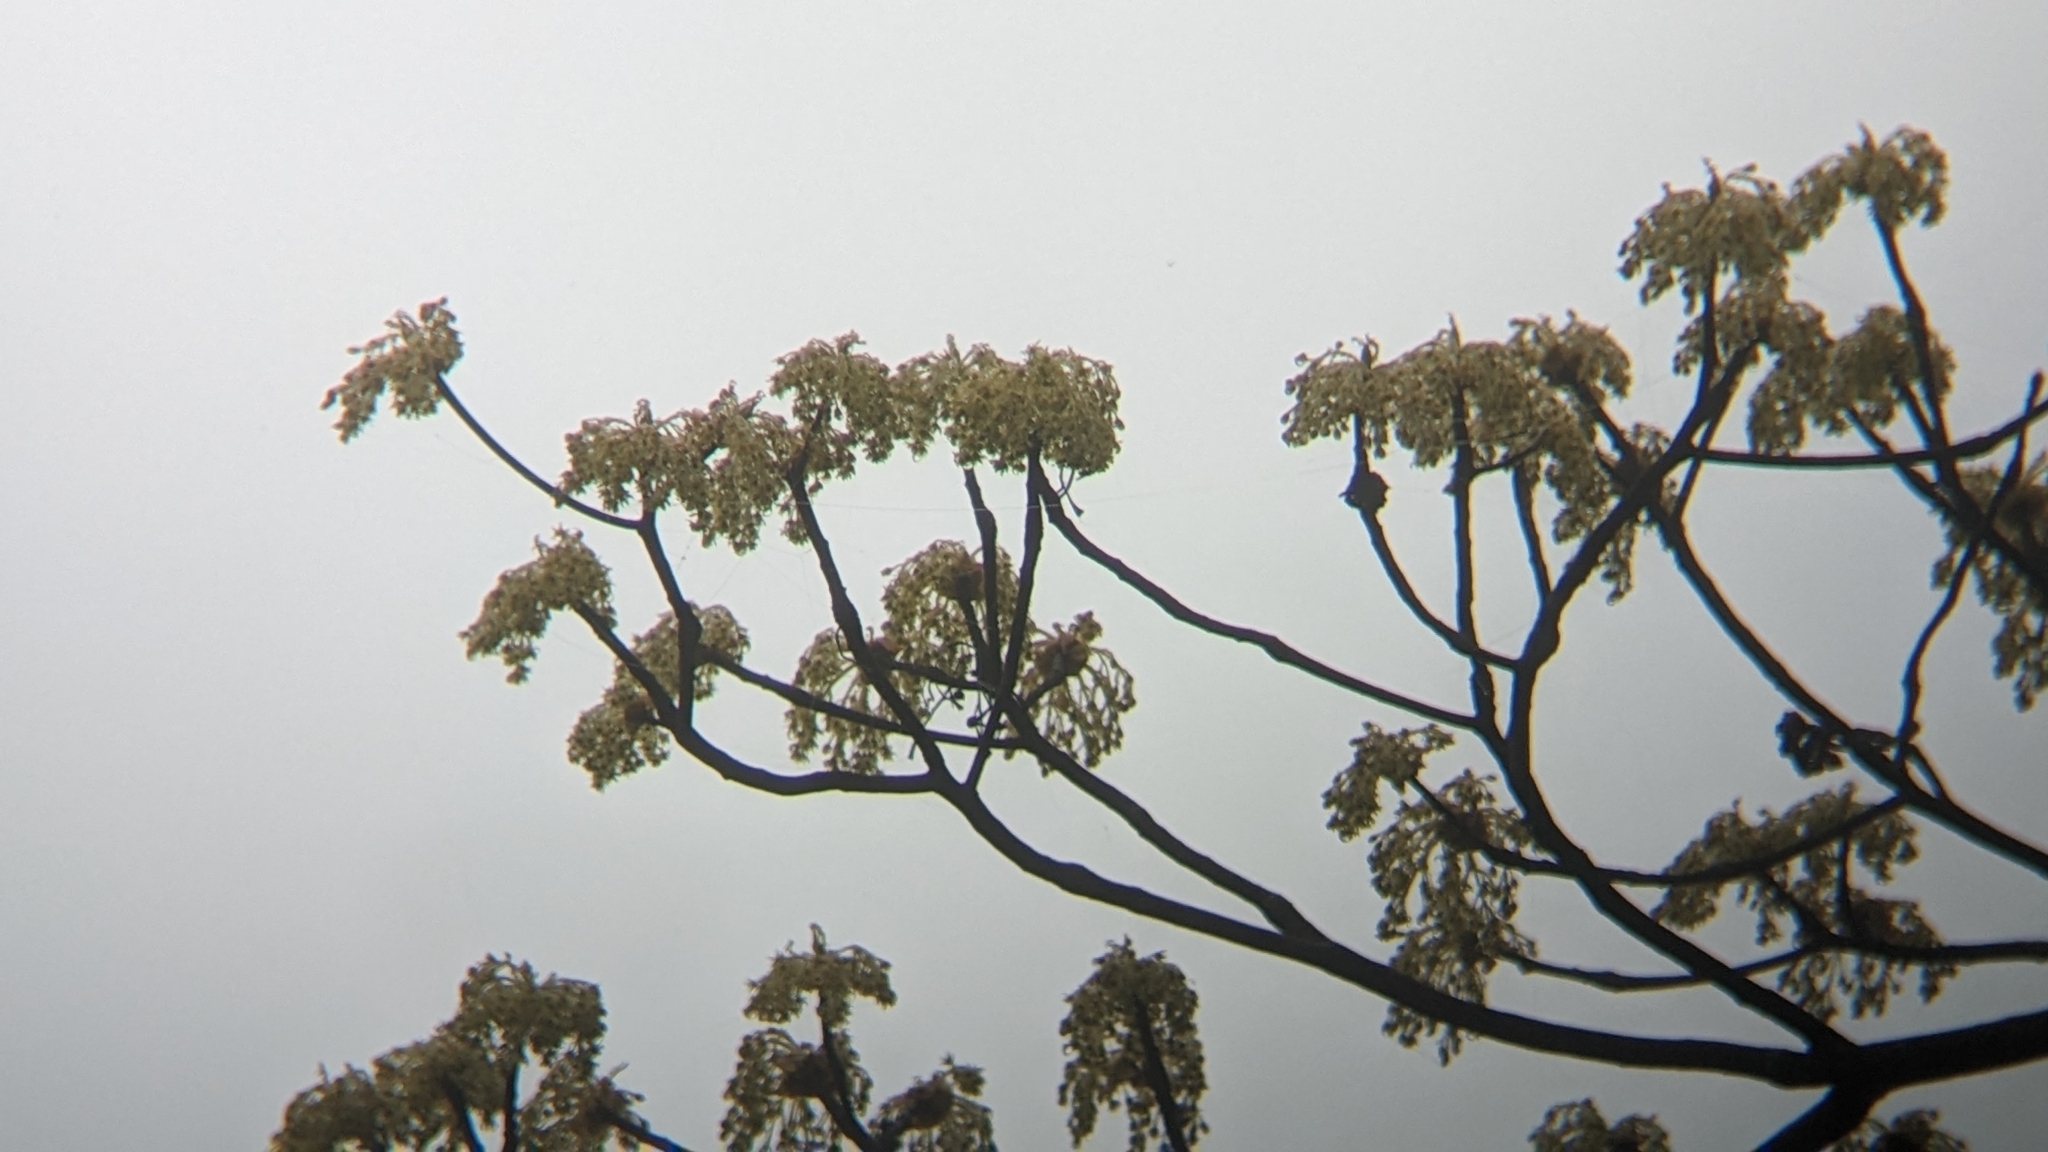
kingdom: Plantae
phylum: Tracheophyta
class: Magnoliopsida
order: Laurales
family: Lauraceae
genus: Sassafras
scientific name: Sassafras randaiense
